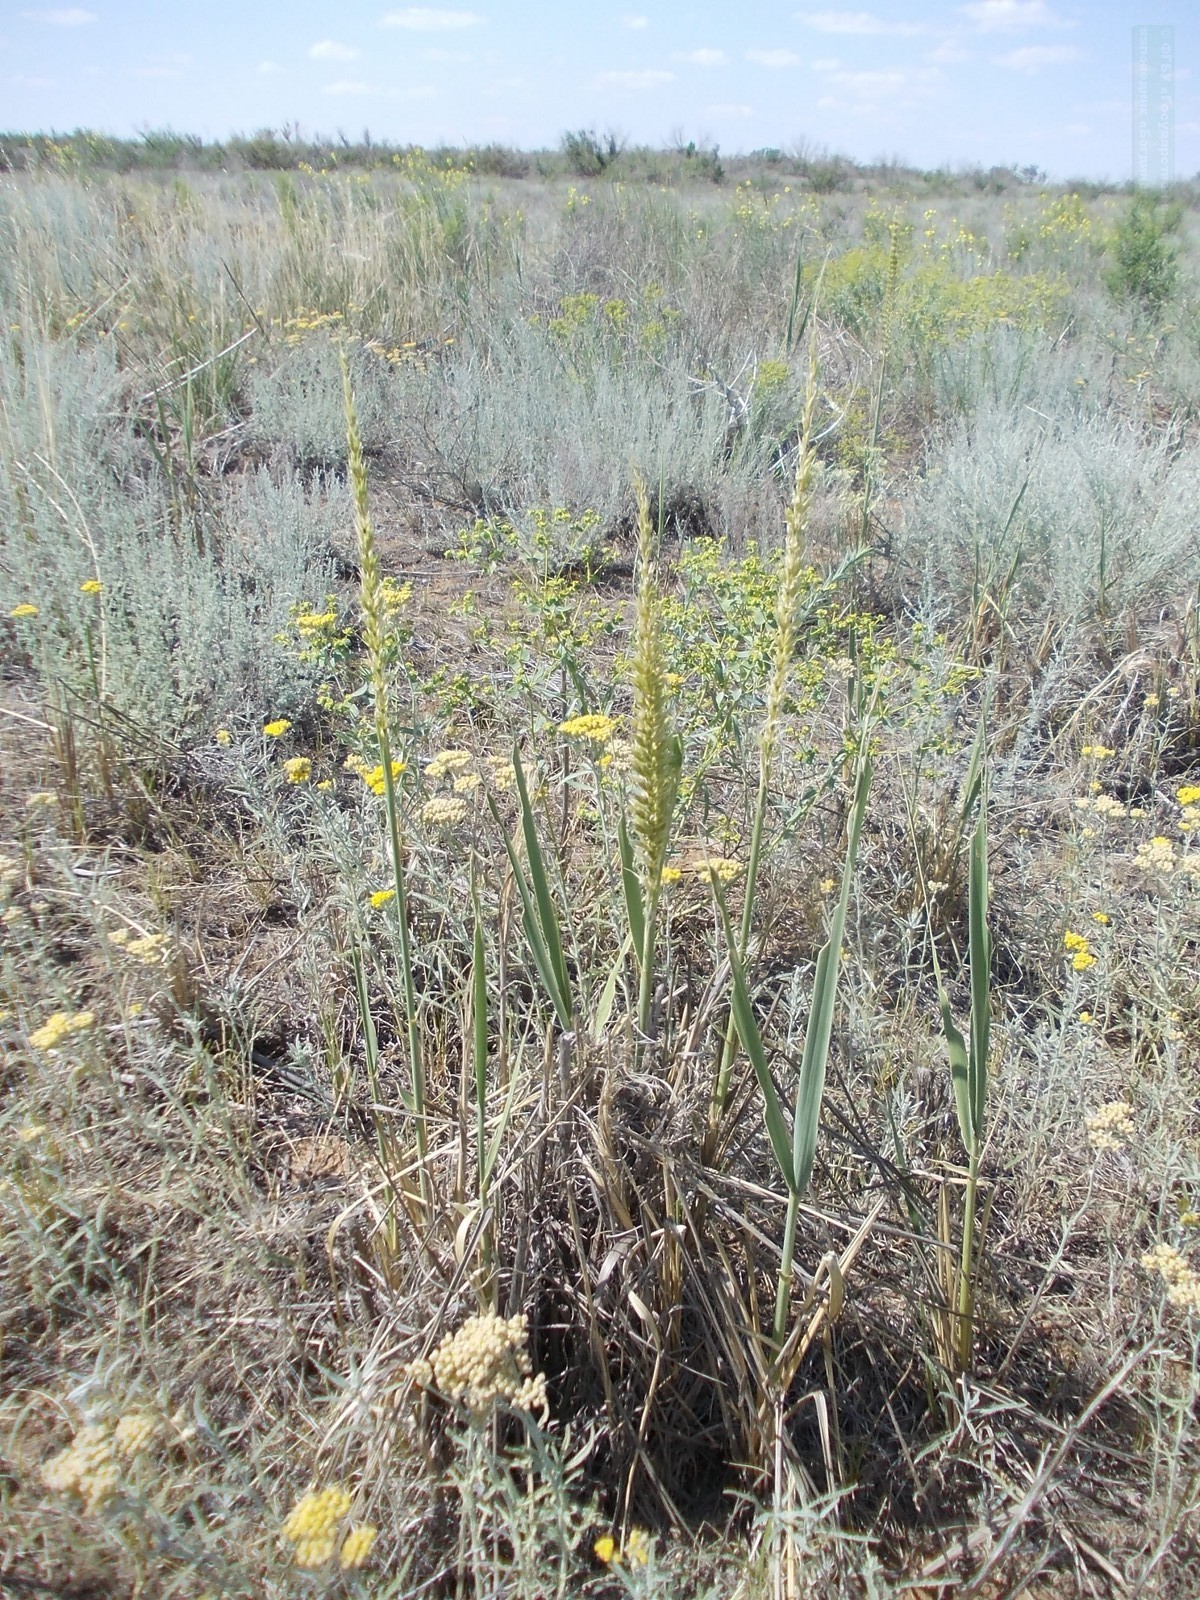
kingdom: Plantae
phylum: Tracheophyta
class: Magnoliopsida
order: Asterales
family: Asteraceae
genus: Achillea
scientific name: Achillea micrantha
